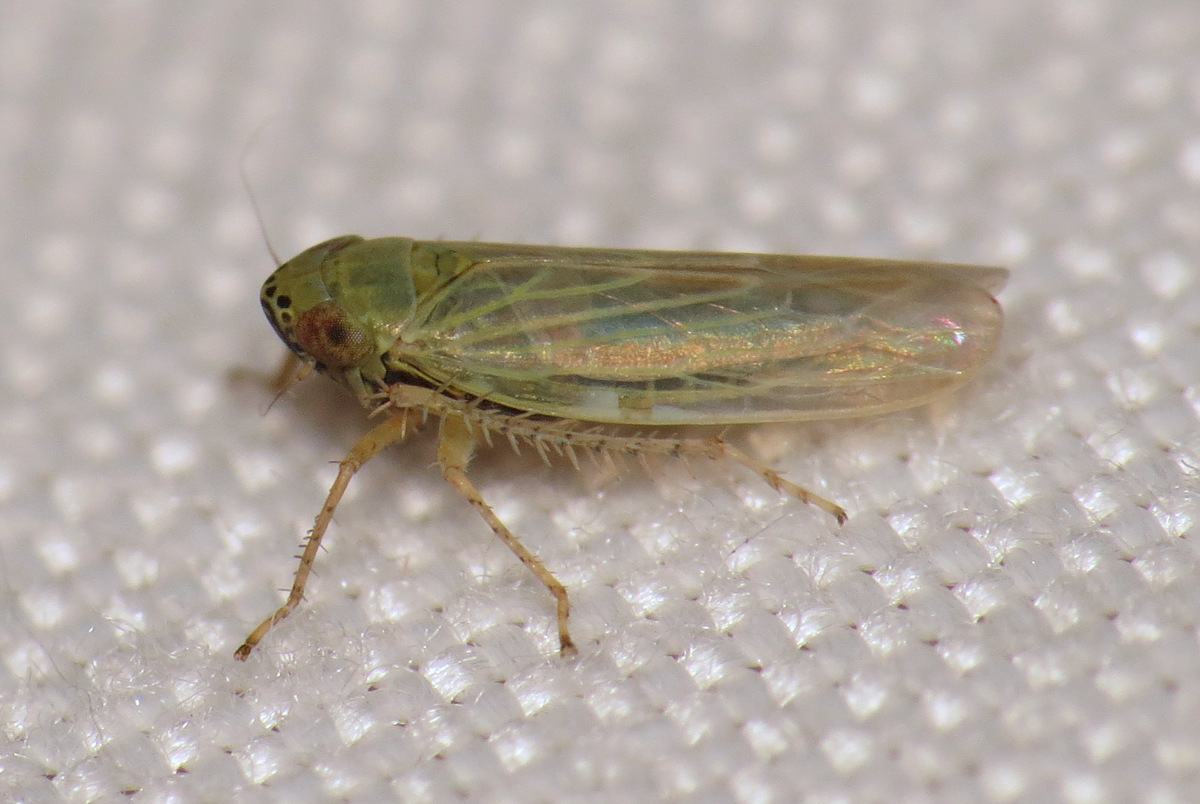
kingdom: Animalia
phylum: Arthropoda
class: Insecta
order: Hemiptera
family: Cicadellidae
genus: Graminella
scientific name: Graminella nigrifrons
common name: Blackfaced leafhopper
